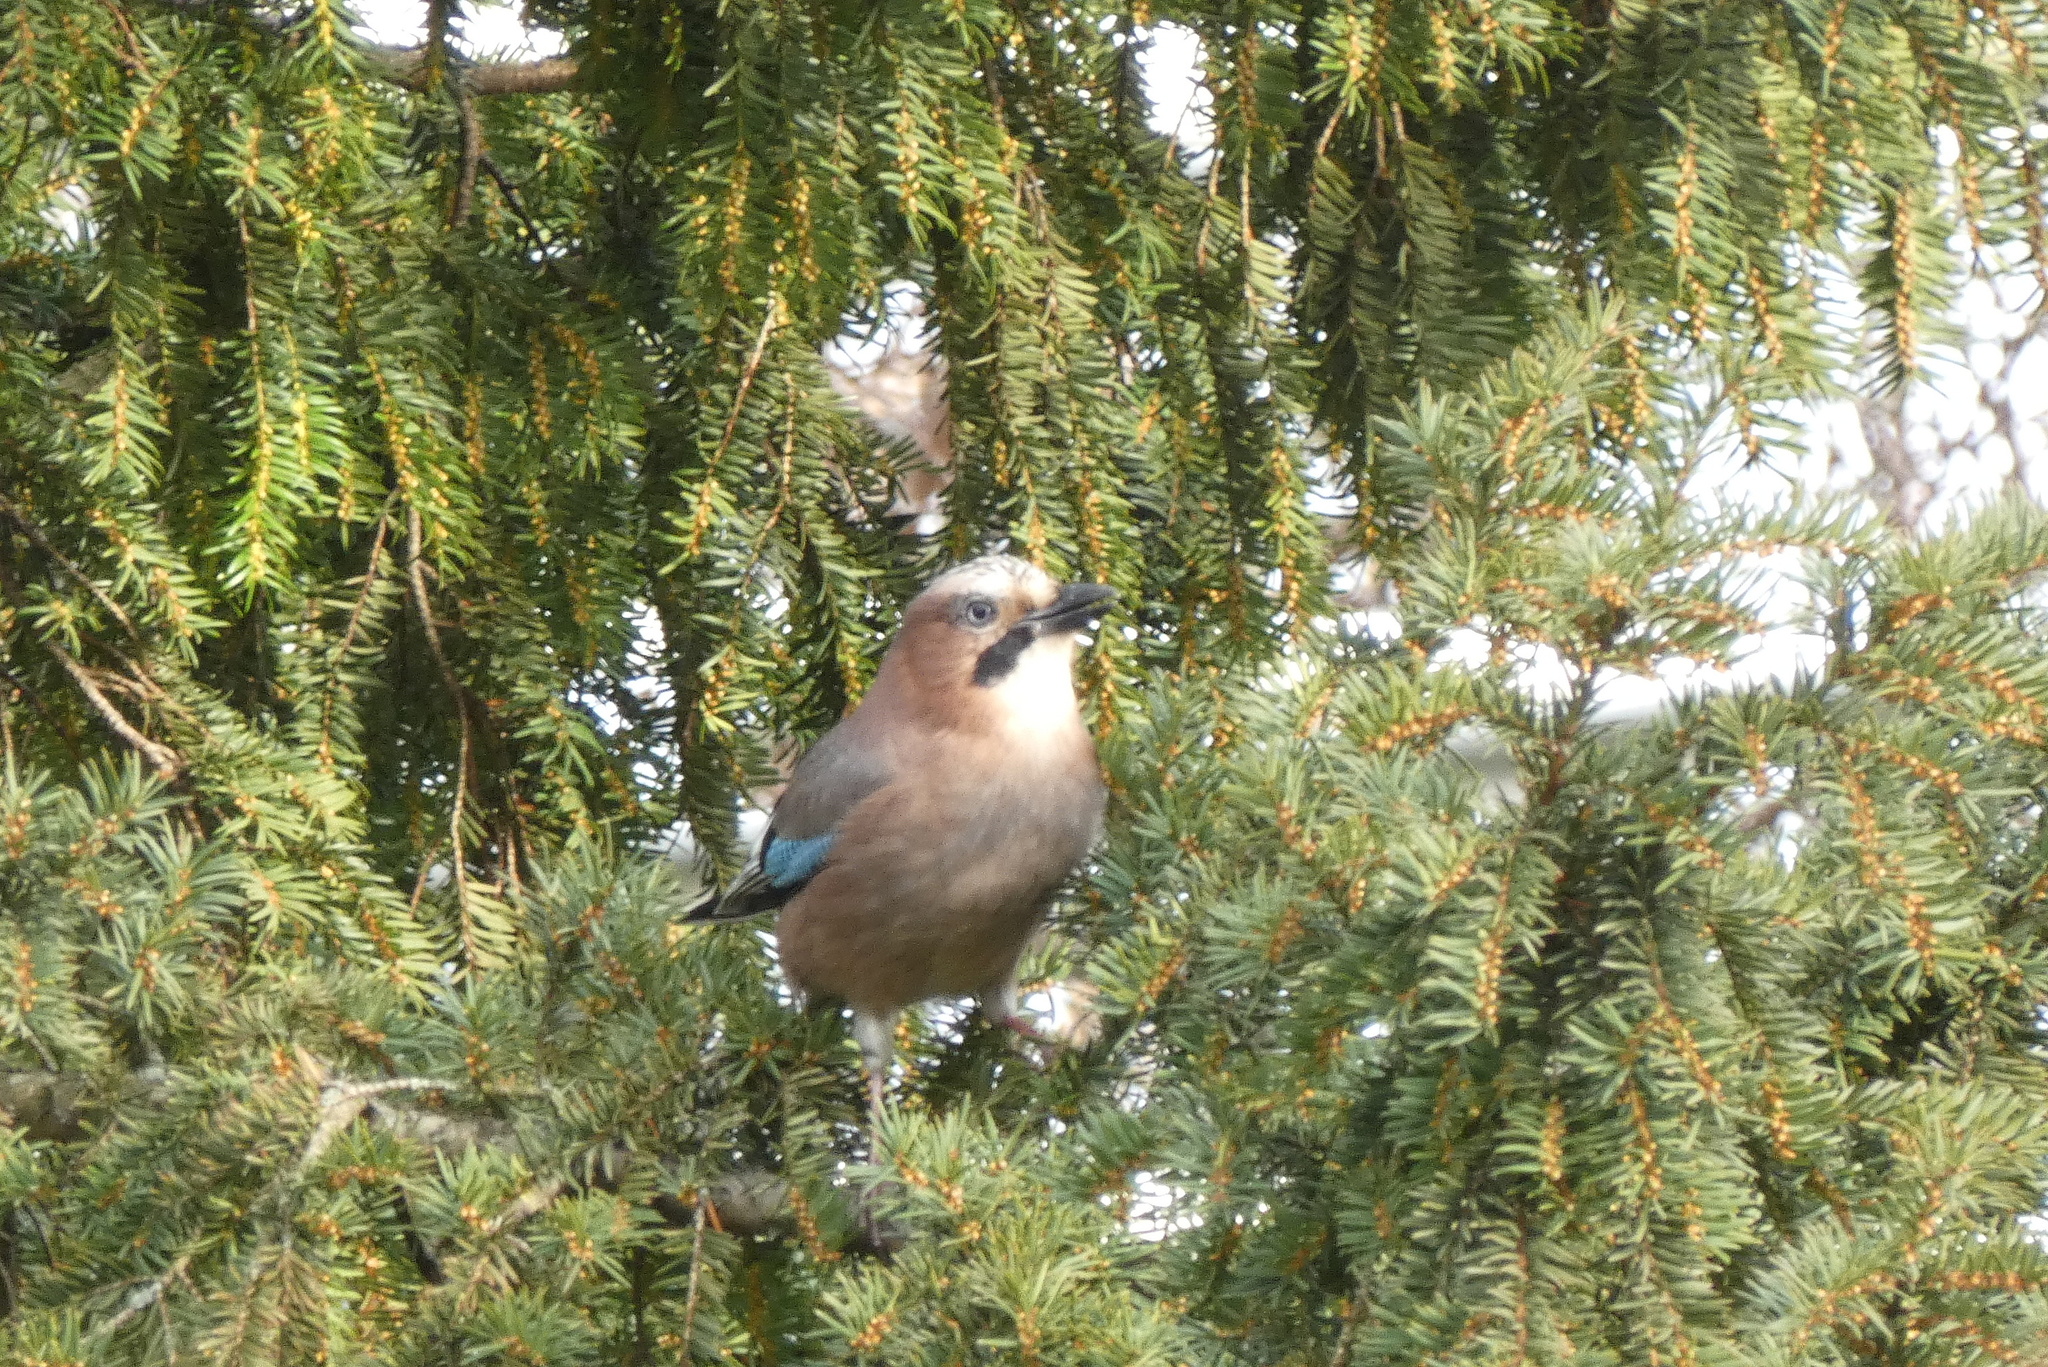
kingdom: Animalia
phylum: Chordata
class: Aves
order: Passeriformes
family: Corvidae
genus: Garrulus
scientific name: Garrulus glandarius
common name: Eurasian jay
